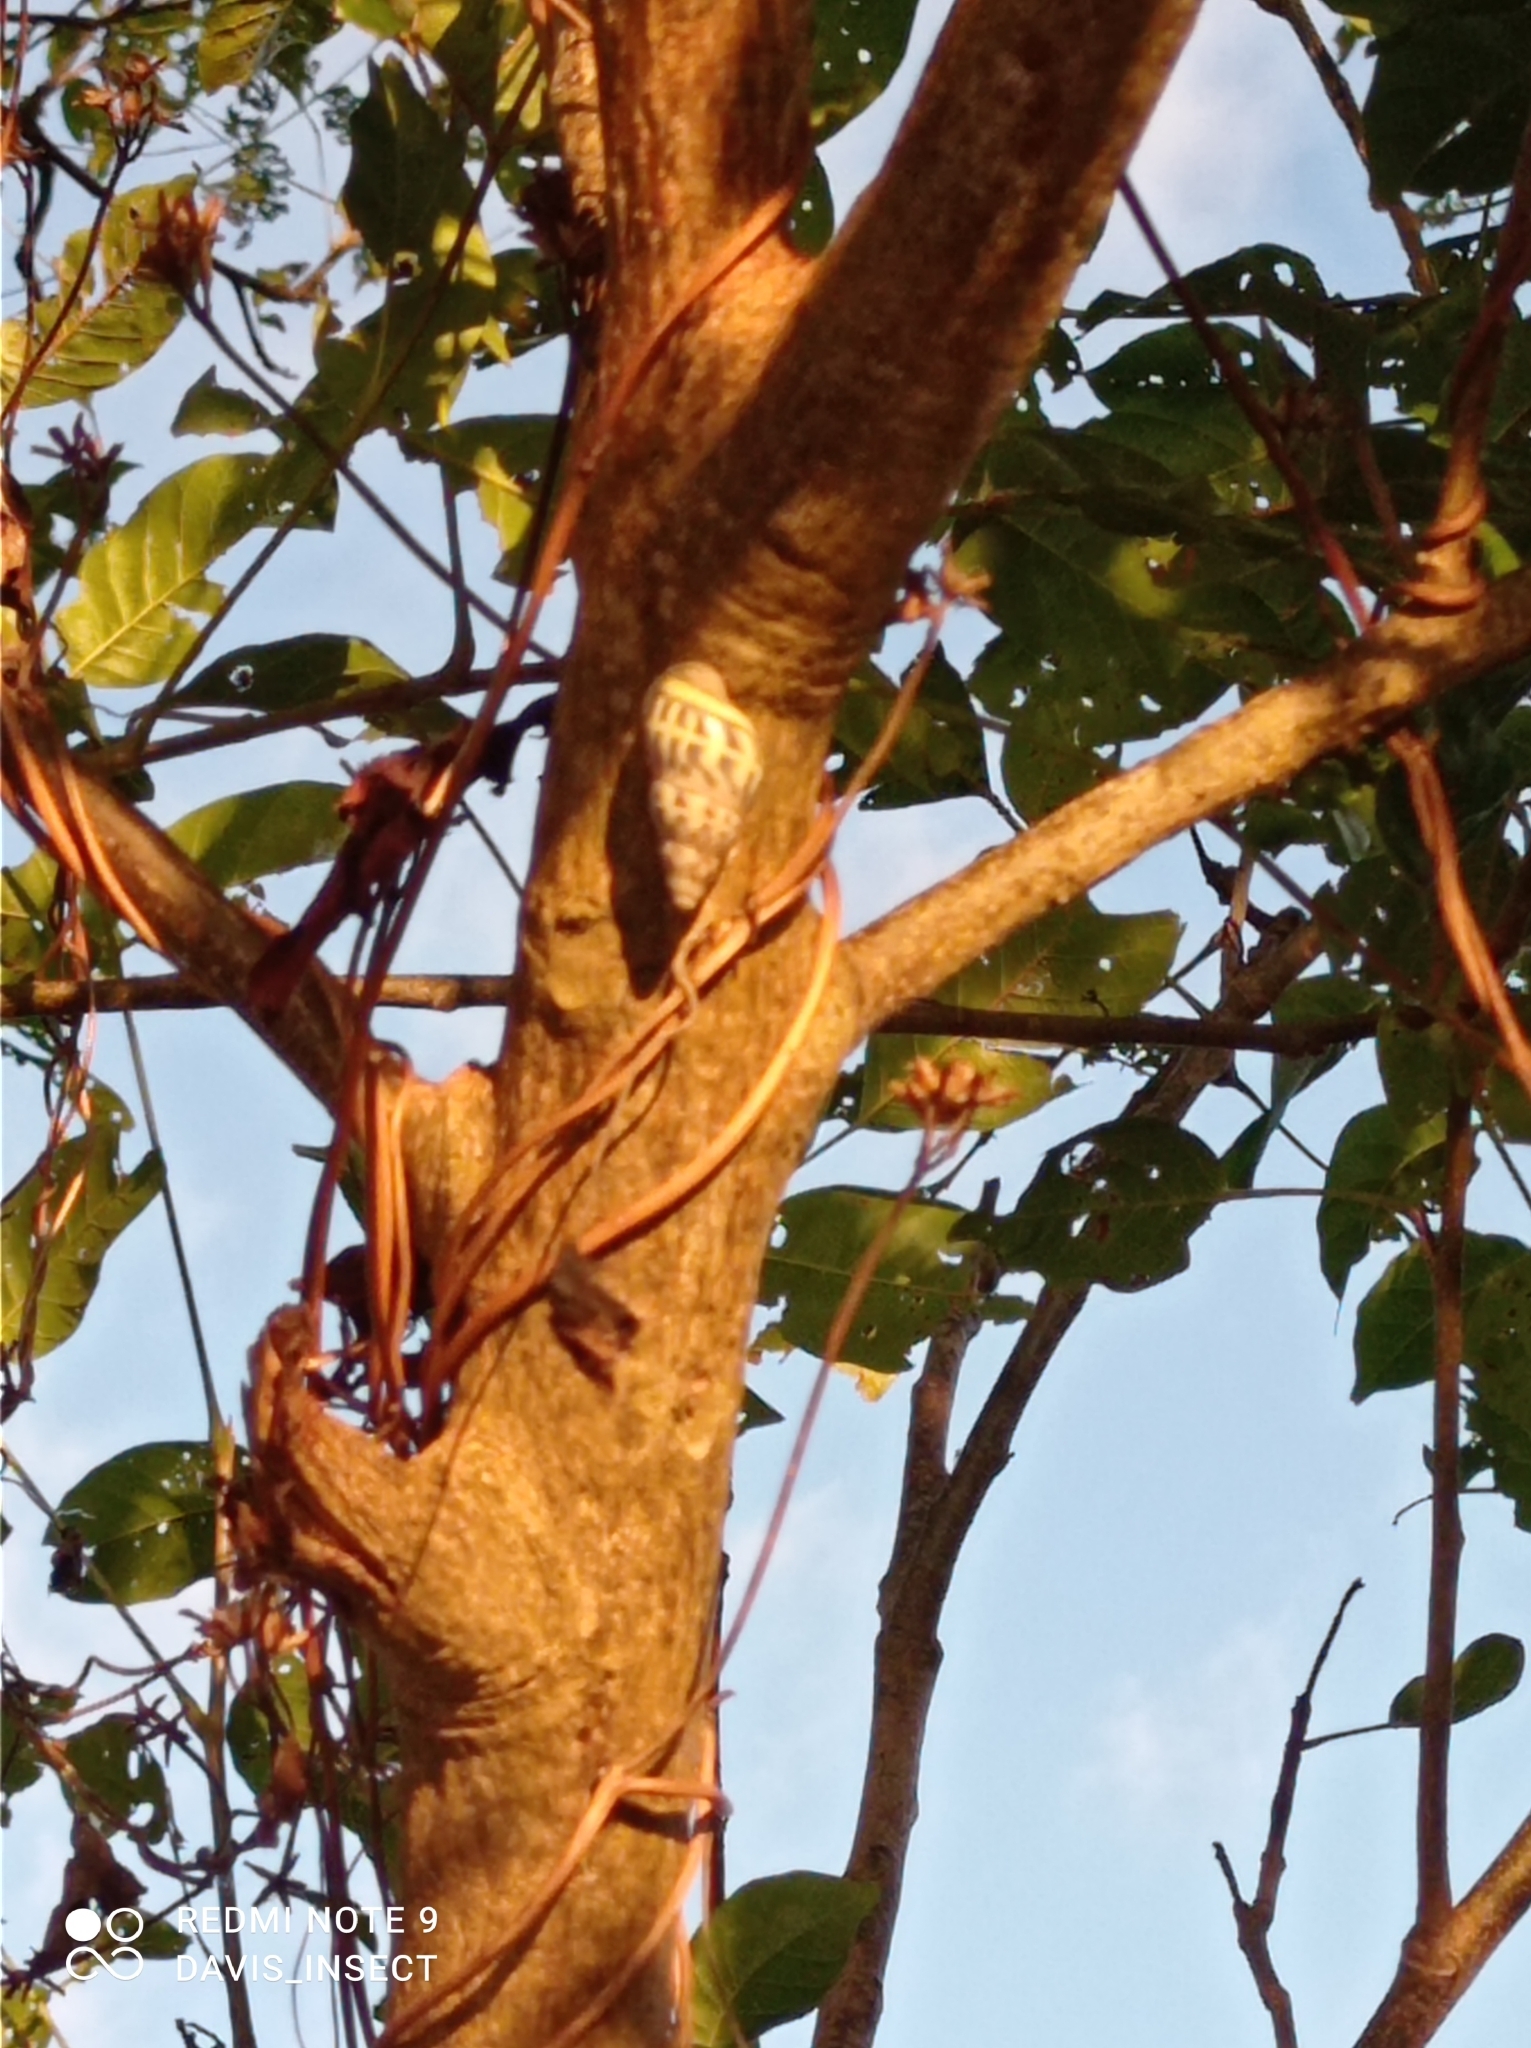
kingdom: Animalia
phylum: Mollusca
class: Gastropoda
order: Stylommatophora
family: Camaenidae
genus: Amphidromus
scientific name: Amphidromus contrarius
